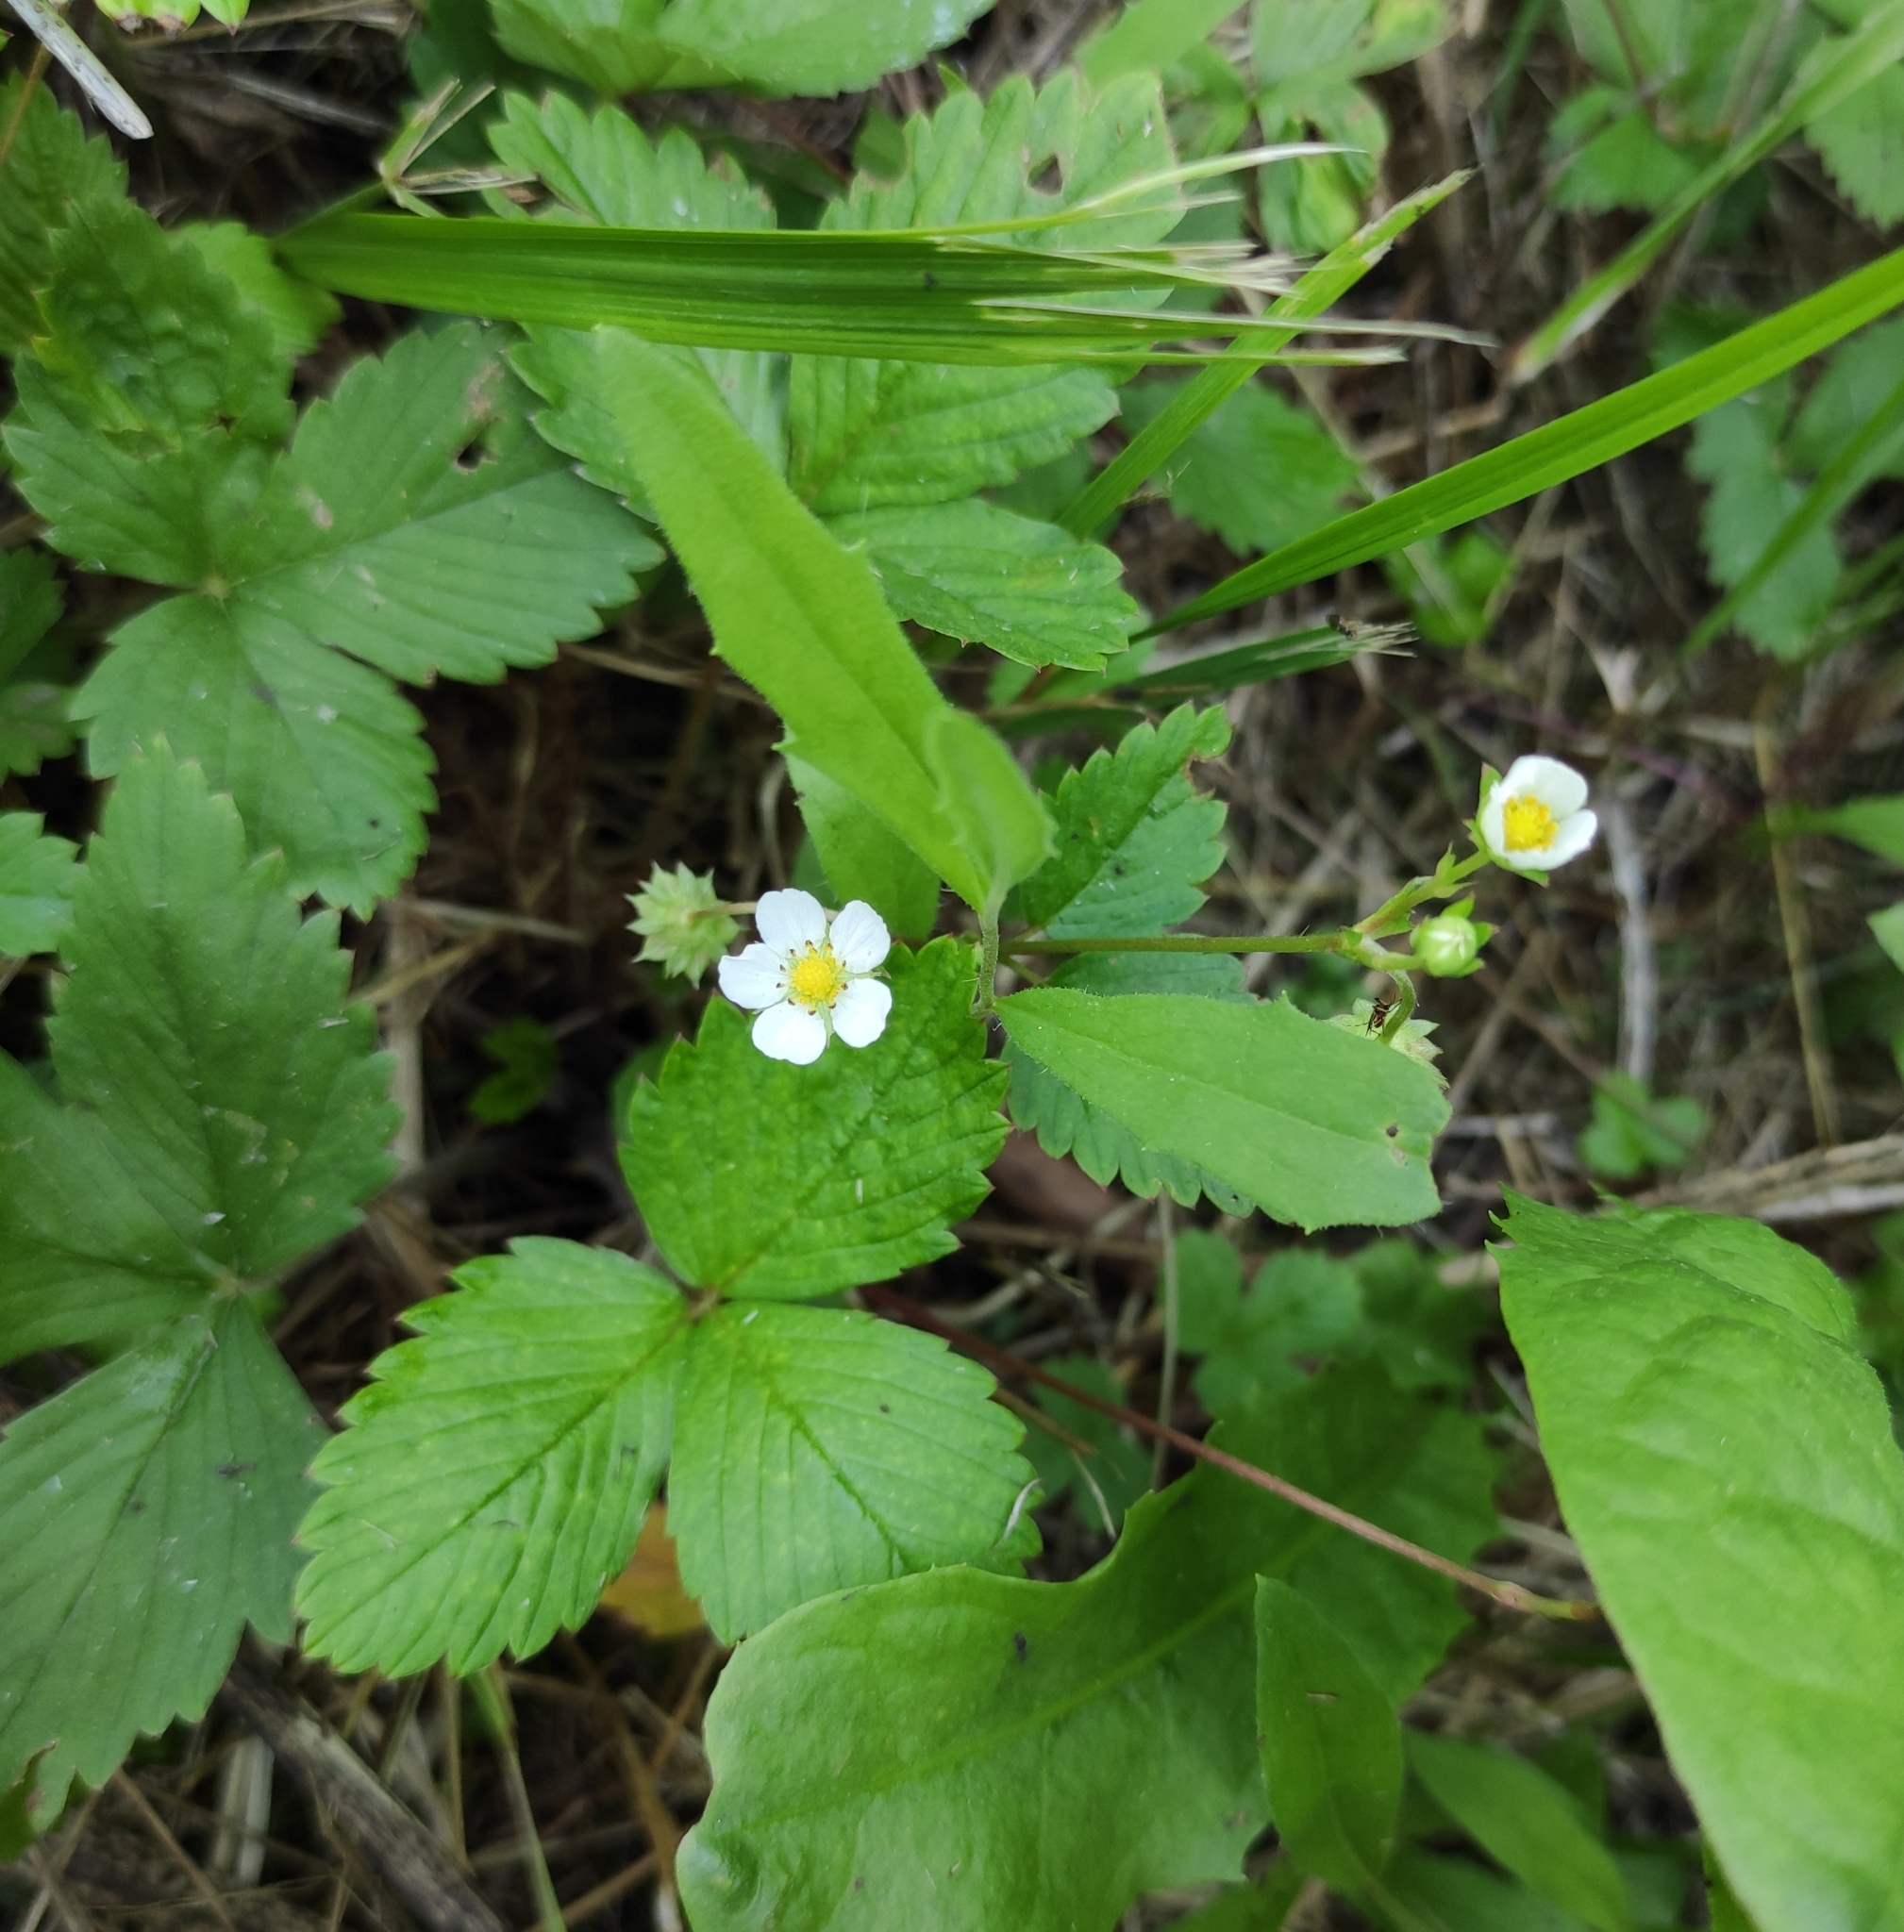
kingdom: Plantae
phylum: Tracheophyta
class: Magnoliopsida
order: Rosales
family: Rosaceae
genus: Fragaria
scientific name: Fragaria vesca
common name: Wild strawberry
